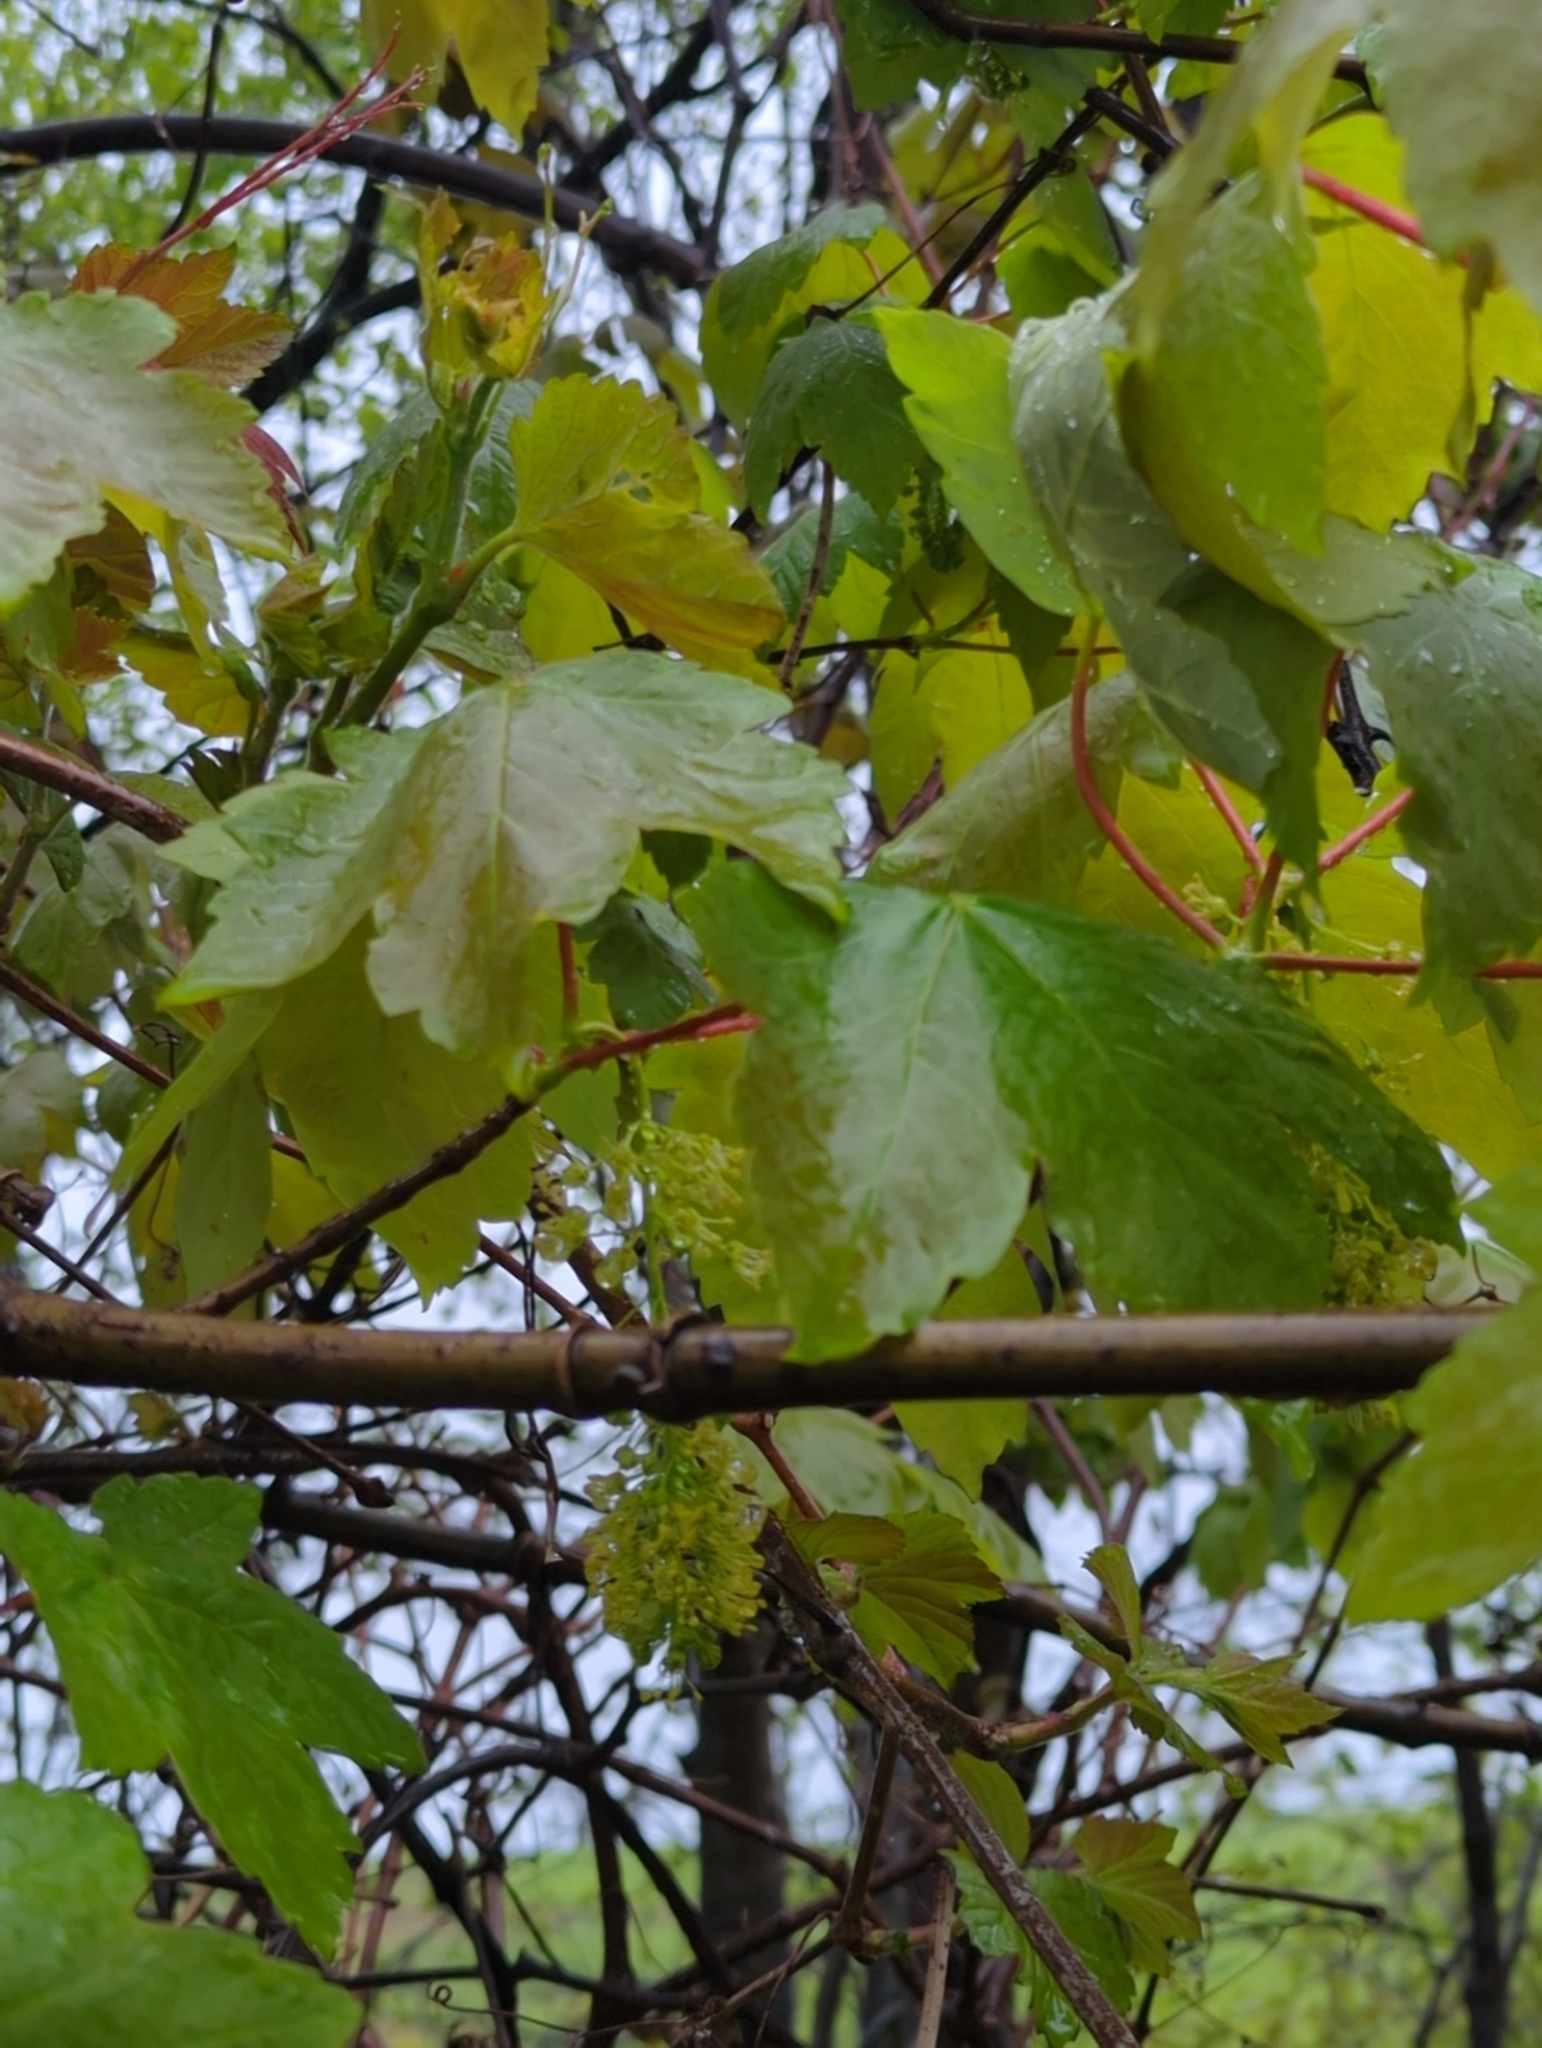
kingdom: Plantae
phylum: Tracheophyta
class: Magnoliopsida
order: Sapindales
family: Sapindaceae
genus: Acer
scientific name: Acer pseudoplatanus
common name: Sycamore
